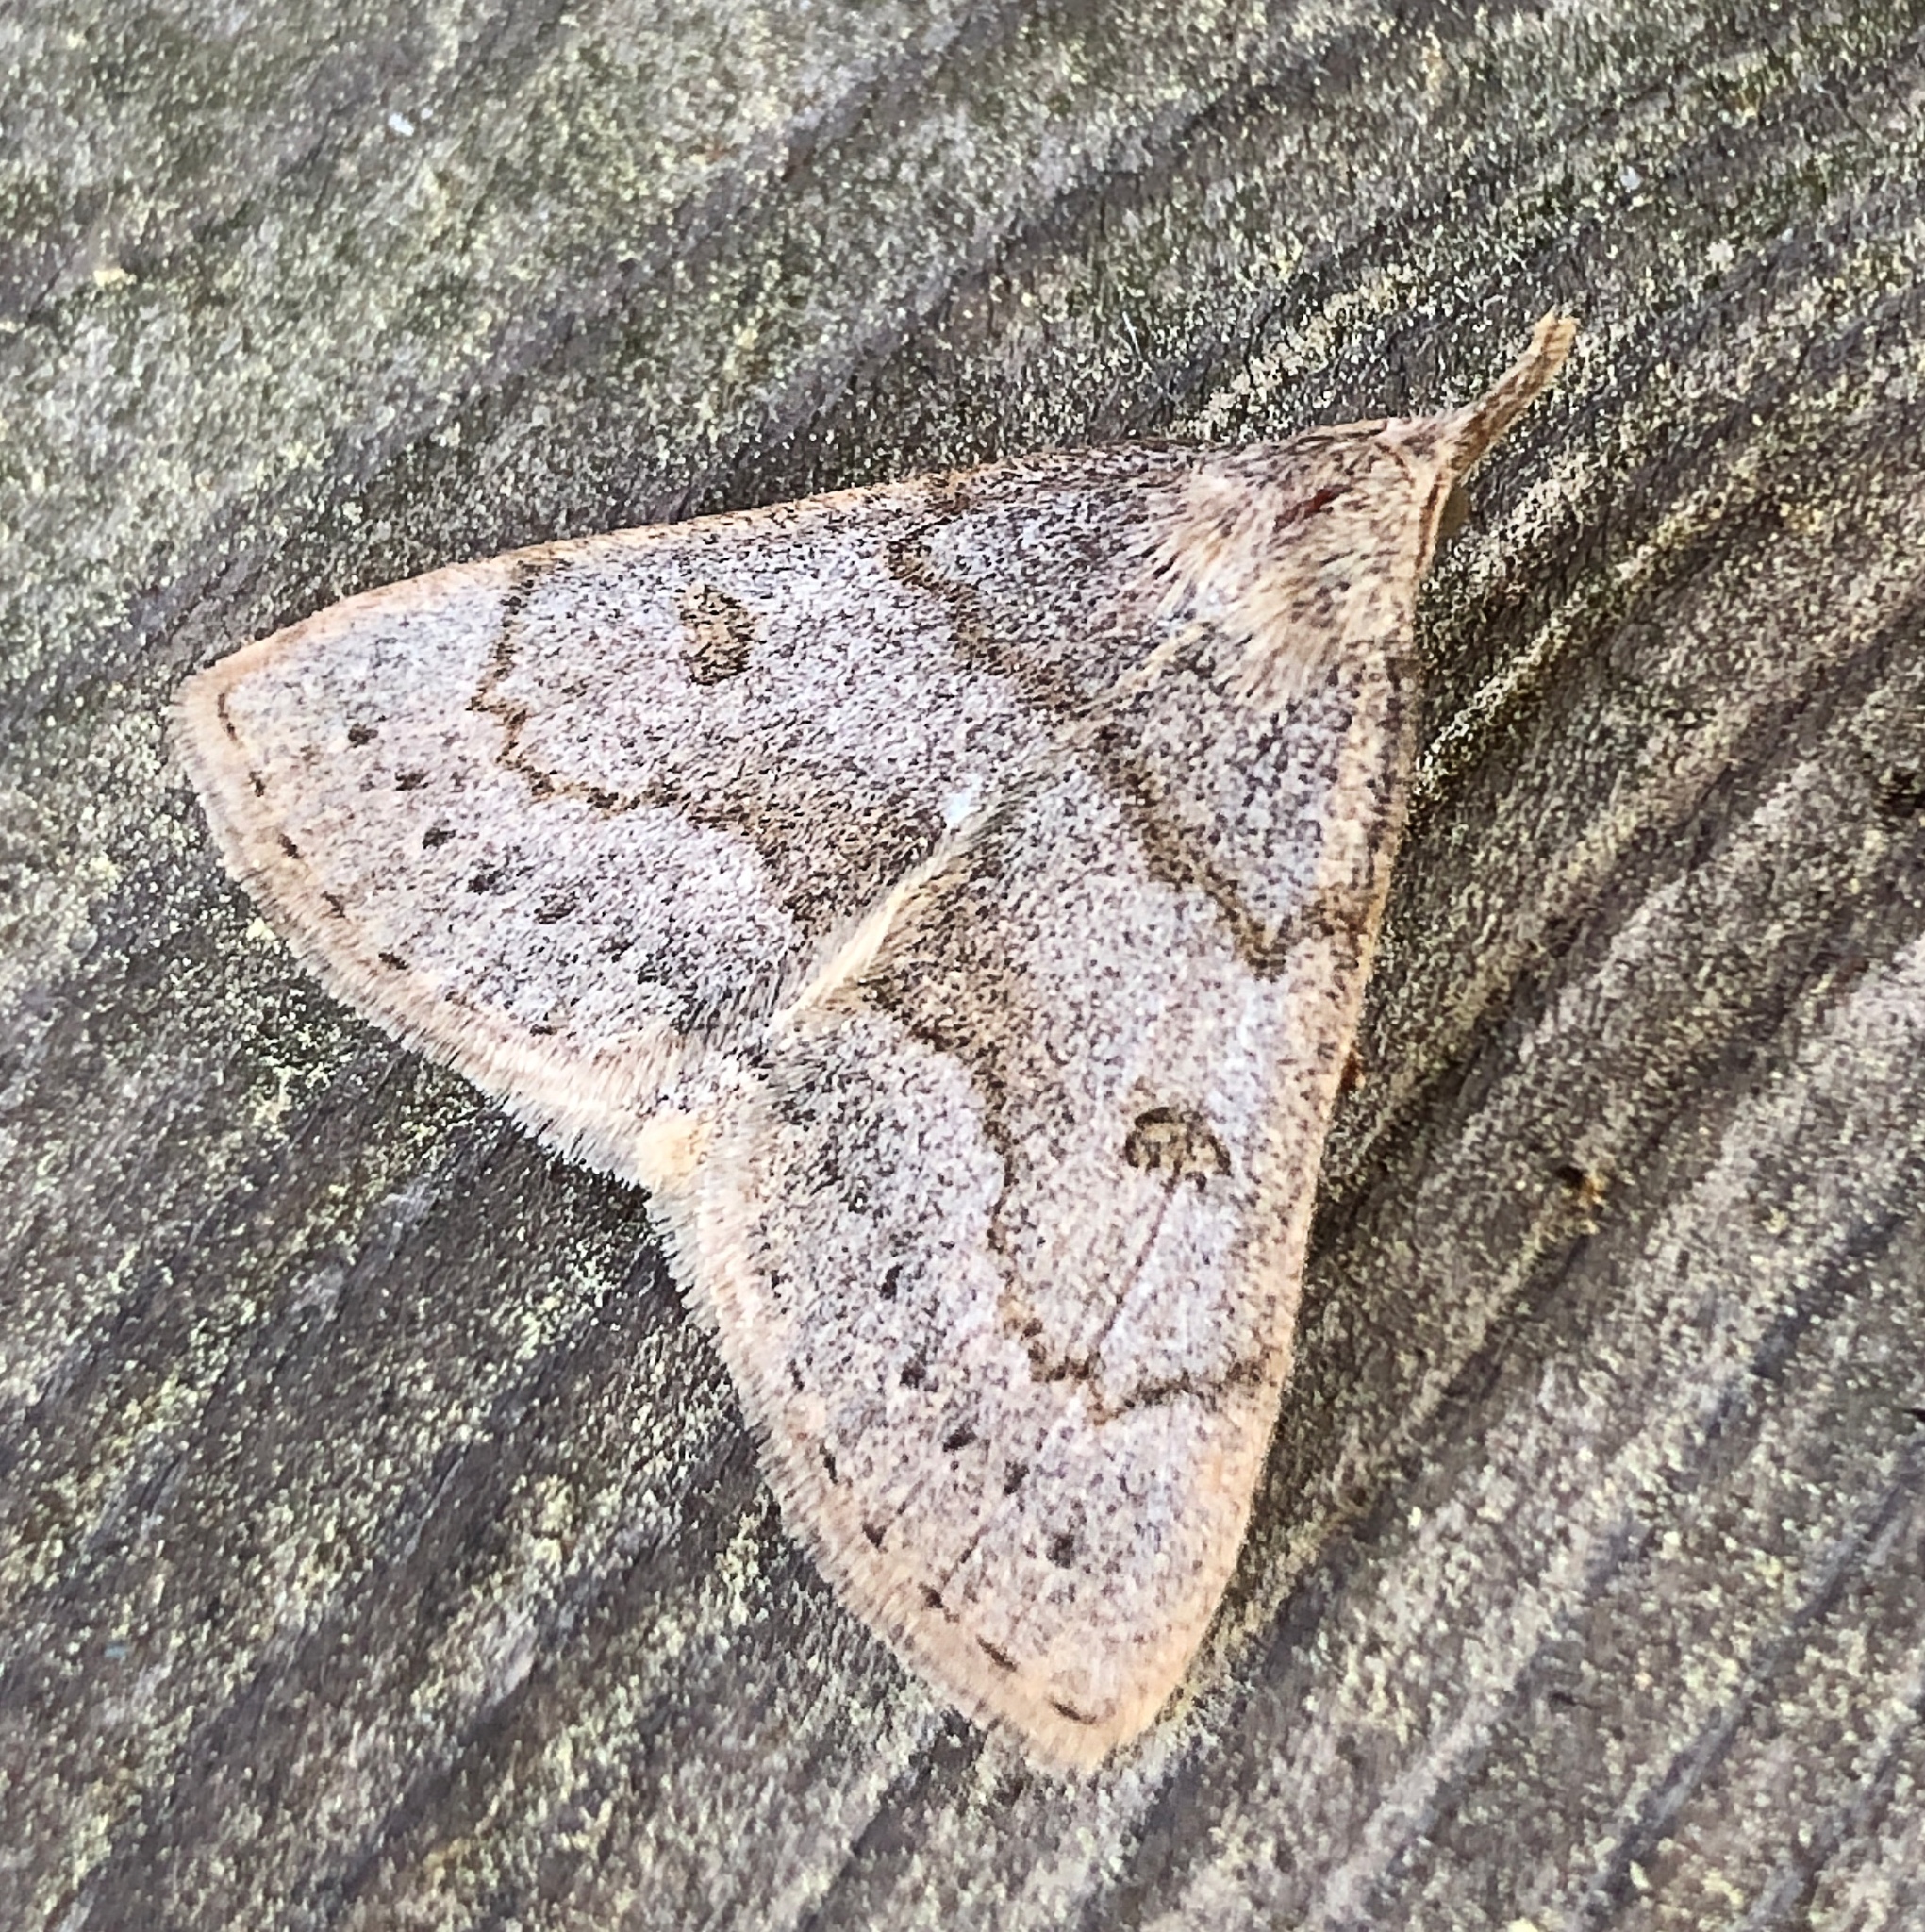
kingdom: Animalia
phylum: Arthropoda
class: Insecta
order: Lepidoptera
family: Erebidae
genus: Macrochilo
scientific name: Macrochilo morbidalis
